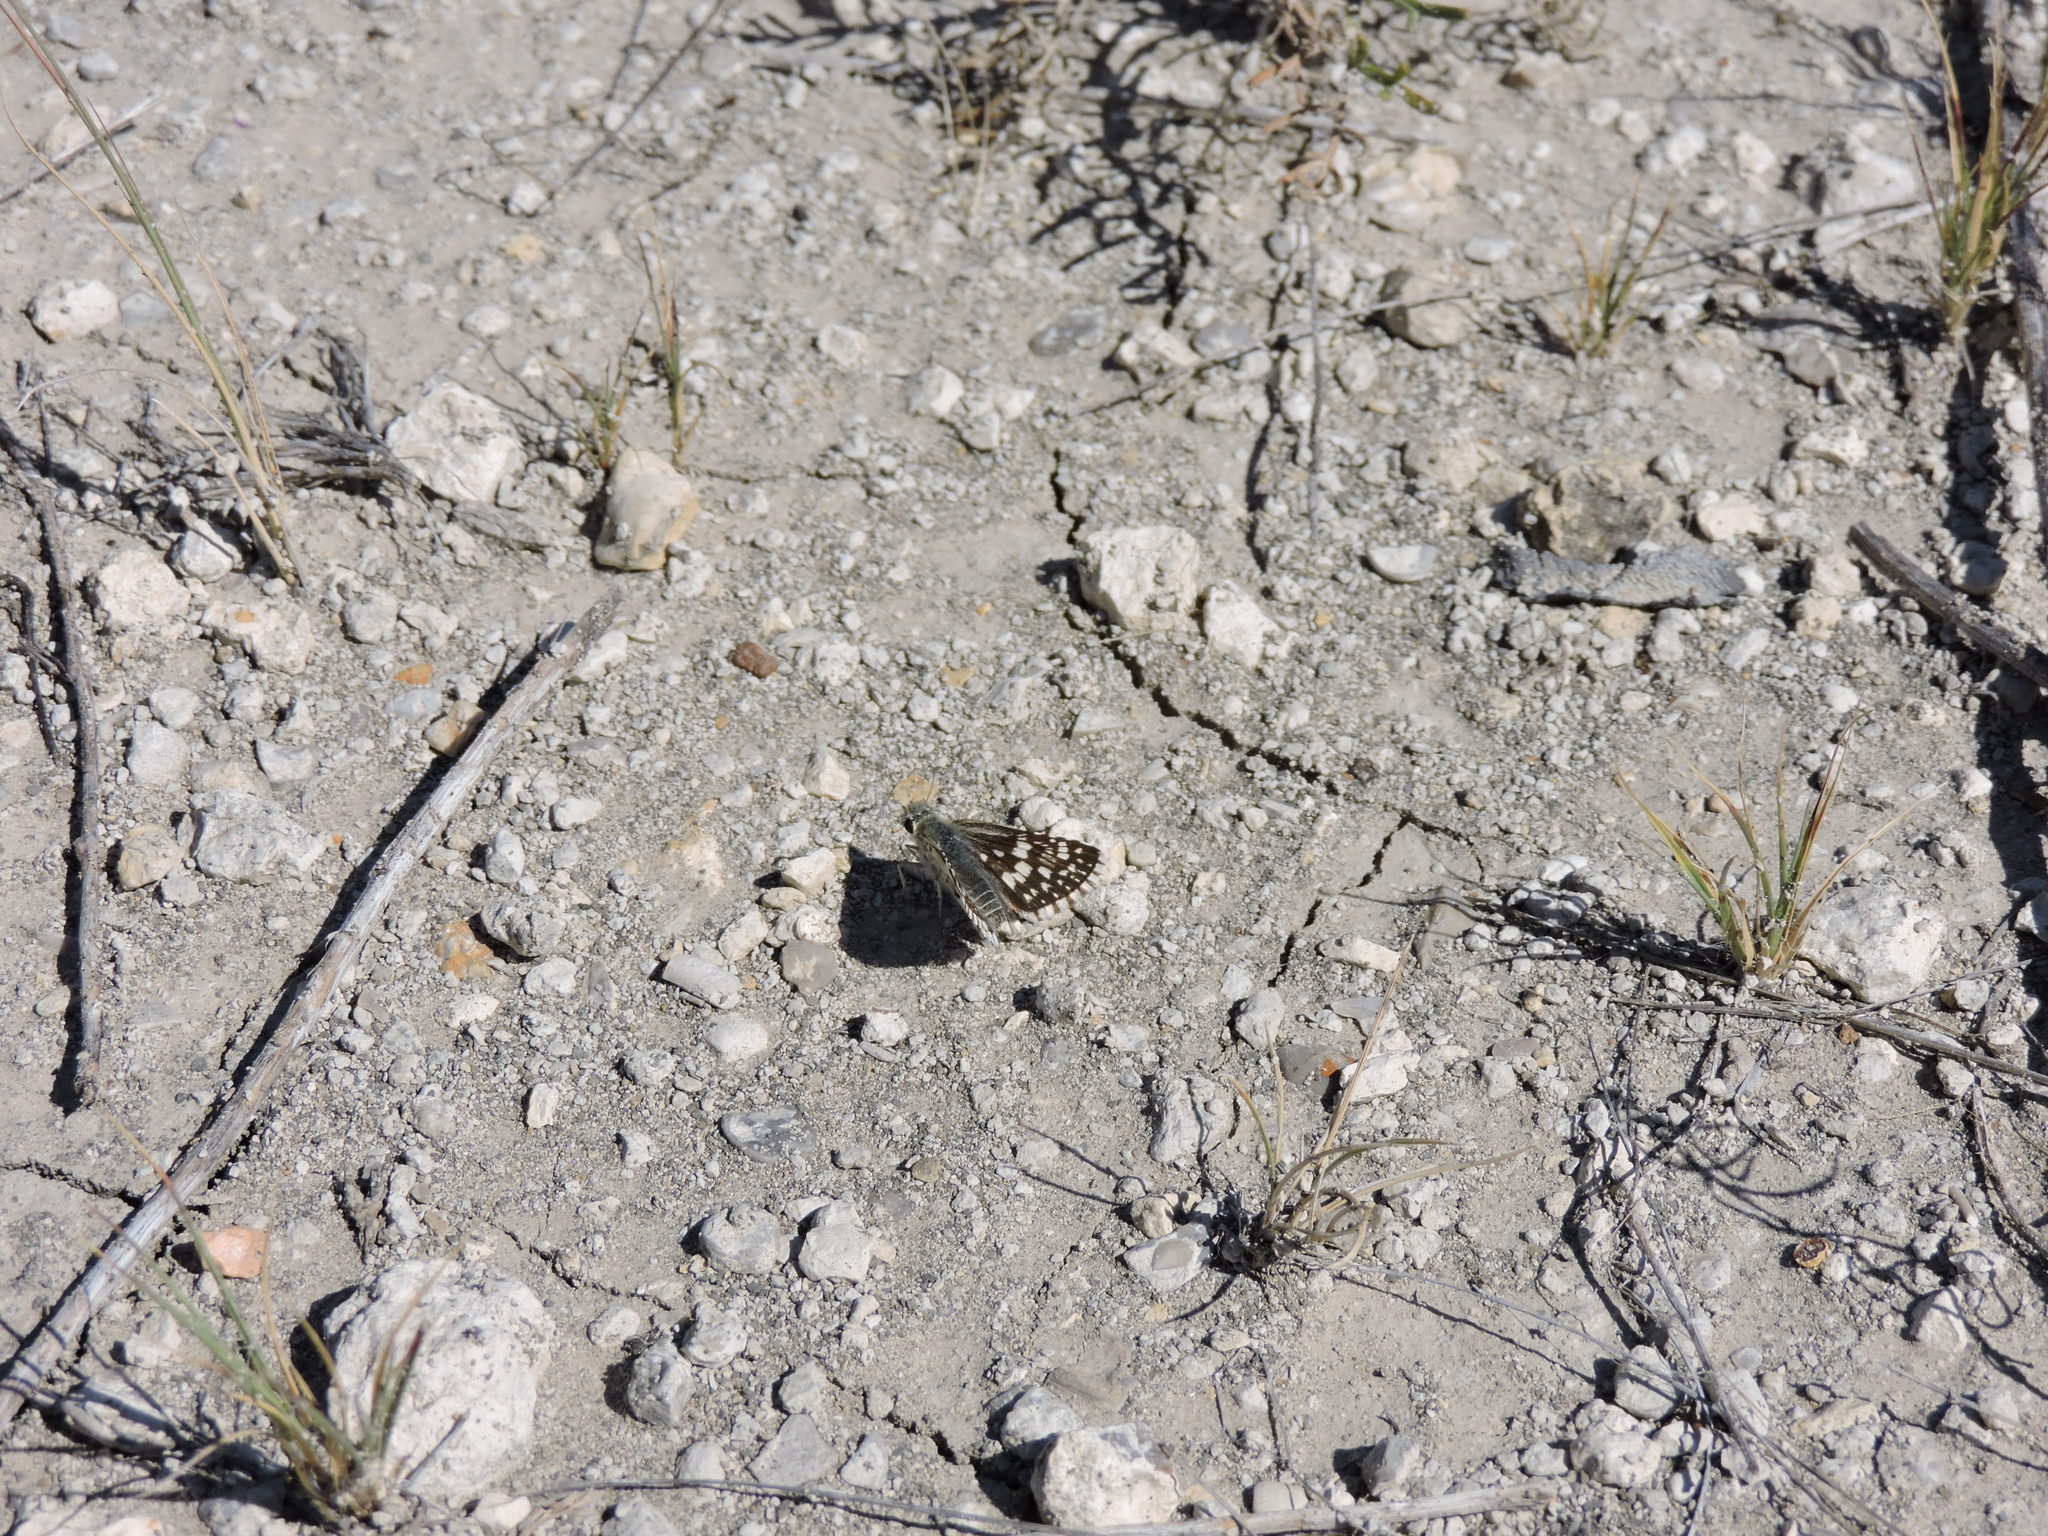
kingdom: Animalia
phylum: Arthropoda
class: Insecta
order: Lepidoptera
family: Hesperiidae
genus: Burnsius
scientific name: Burnsius communis
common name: Common checkered-skipper
